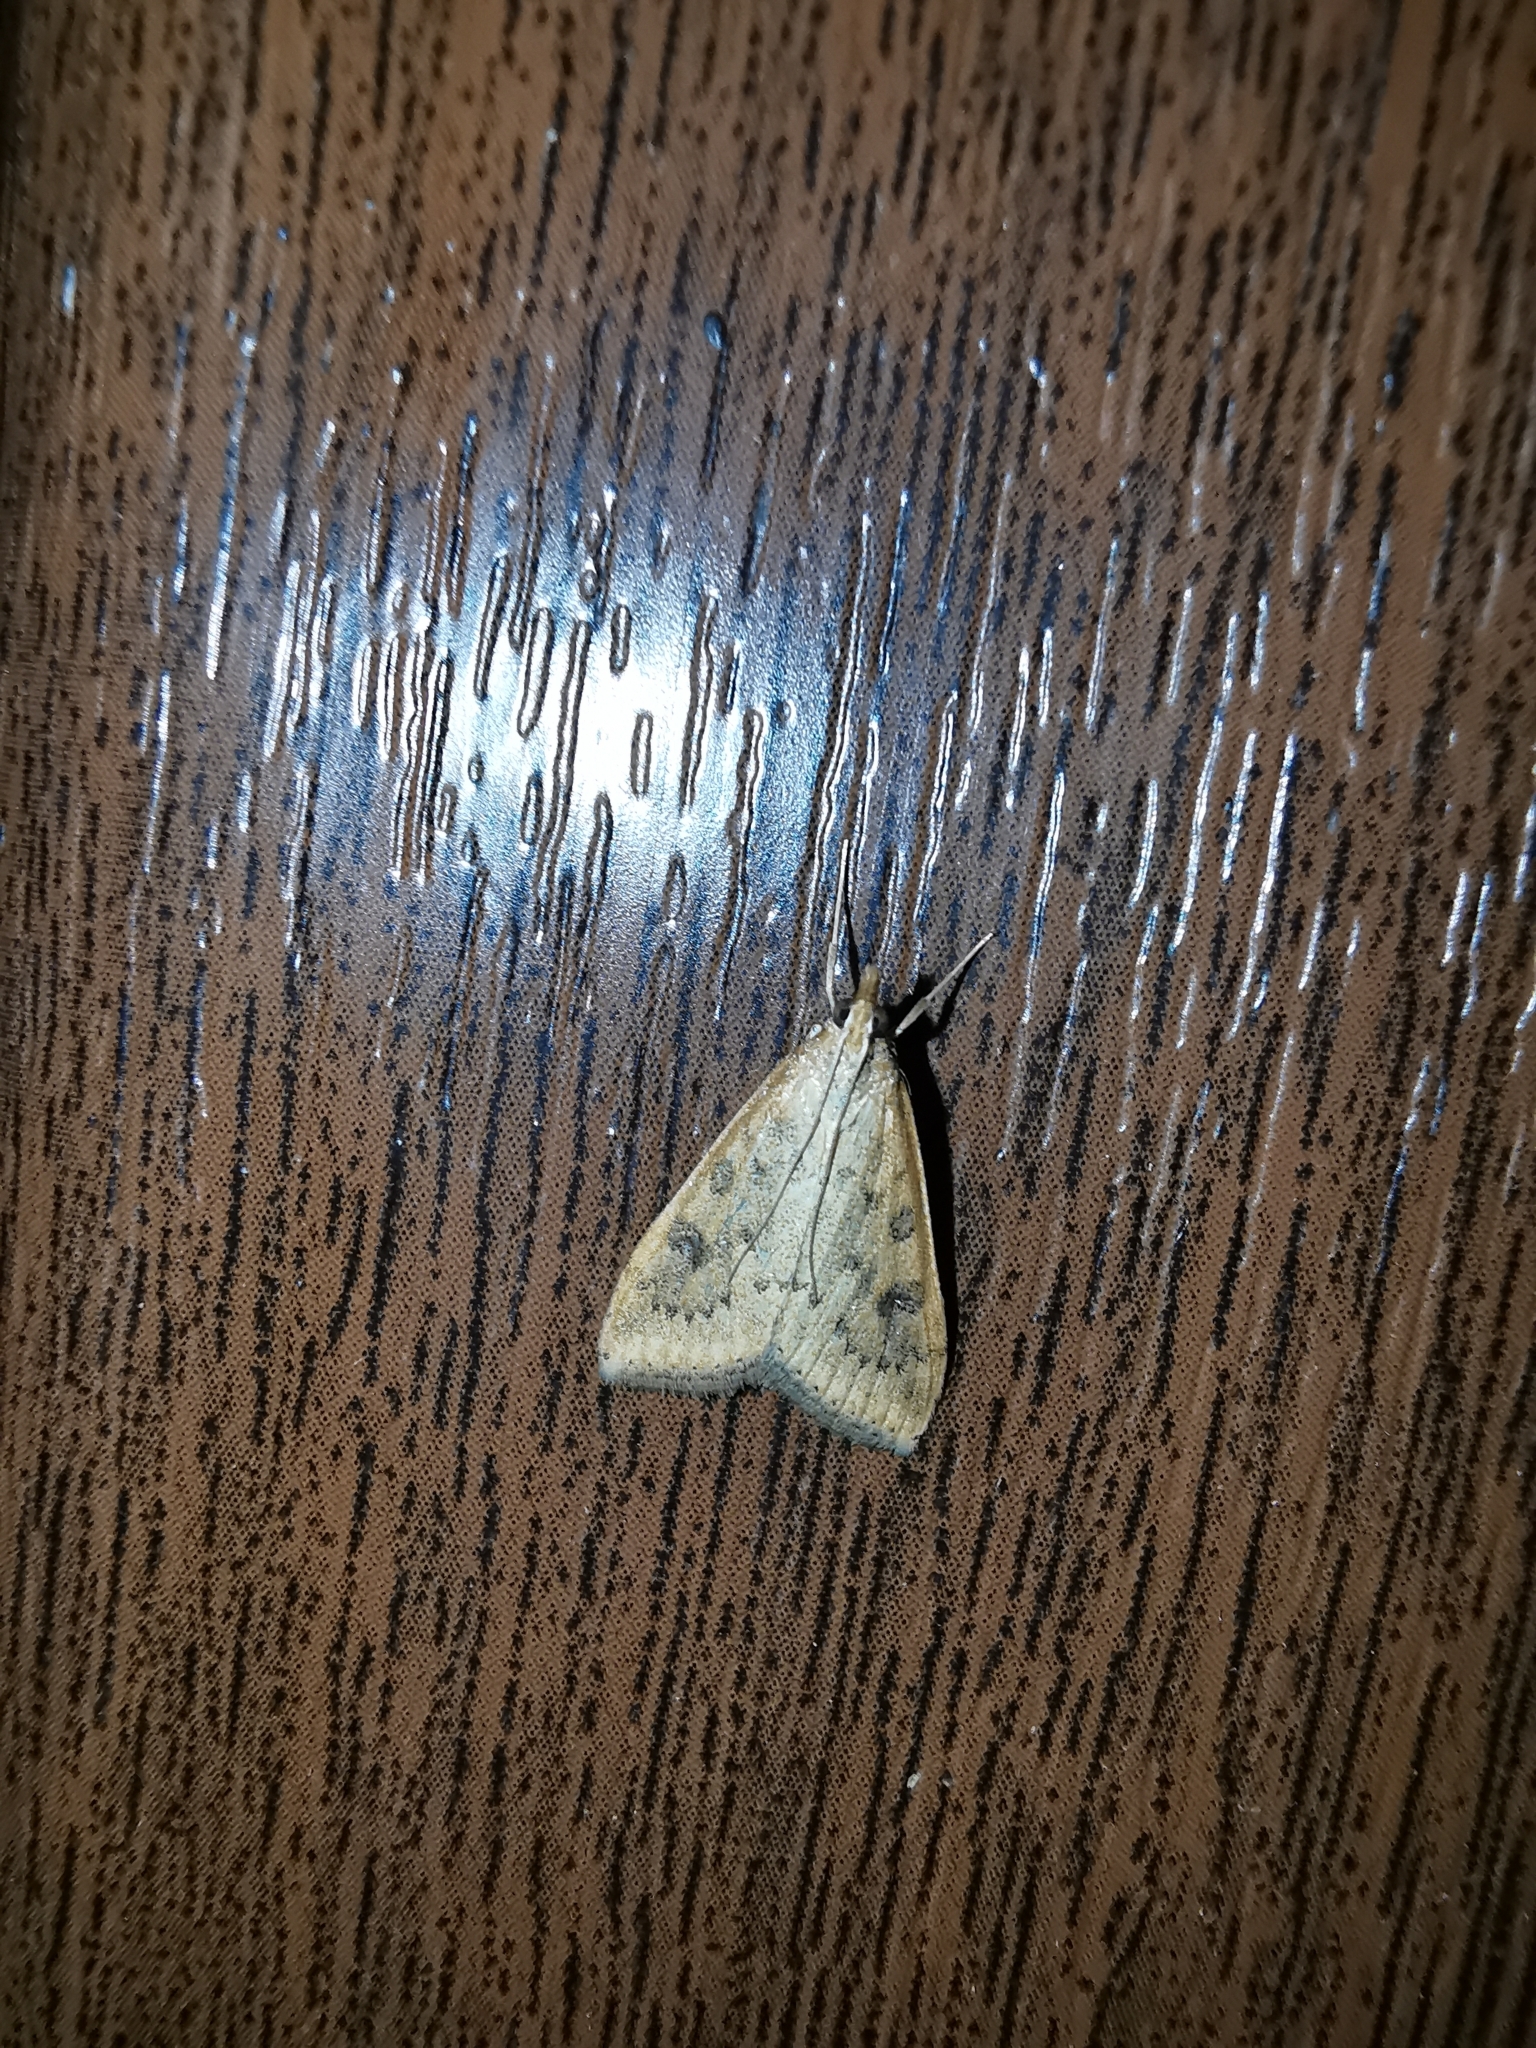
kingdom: Animalia
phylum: Arthropoda
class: Insecta
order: Lepidoptera
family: Crambidae
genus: Udea
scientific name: Udea ferrugalis
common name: Rusty dot
